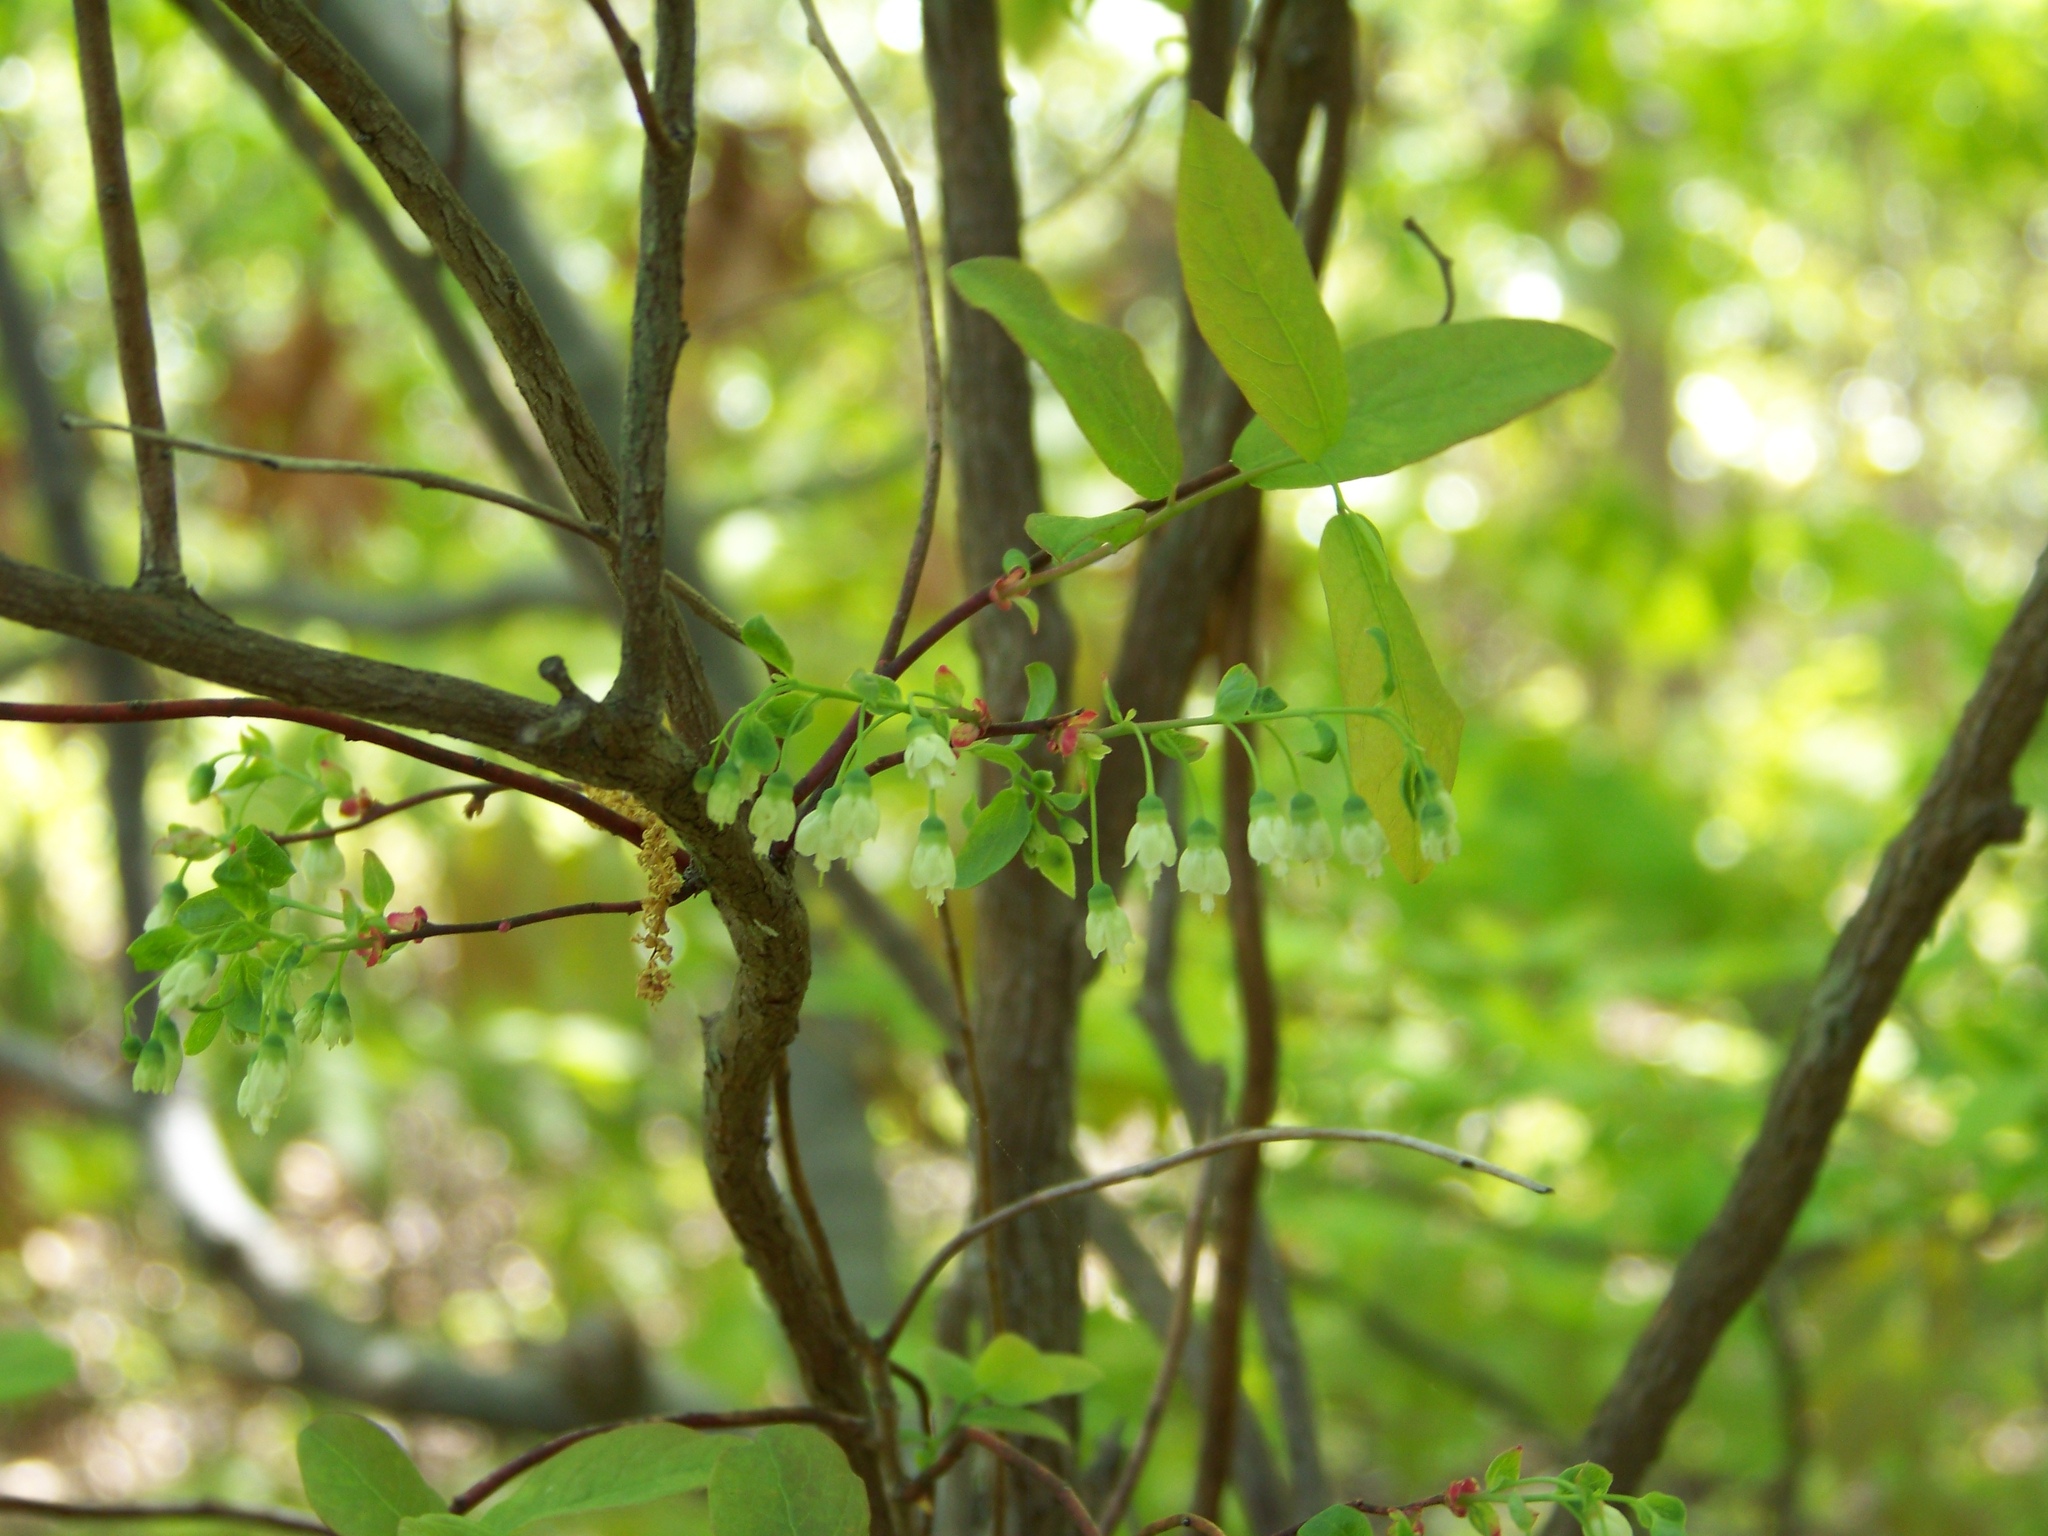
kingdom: Plantae
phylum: Tracheophyta
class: Magnoliopsida
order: Ericales
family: Ericaceae
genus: Vaccinium
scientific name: Vaccinium stamineum
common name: Deerberry
